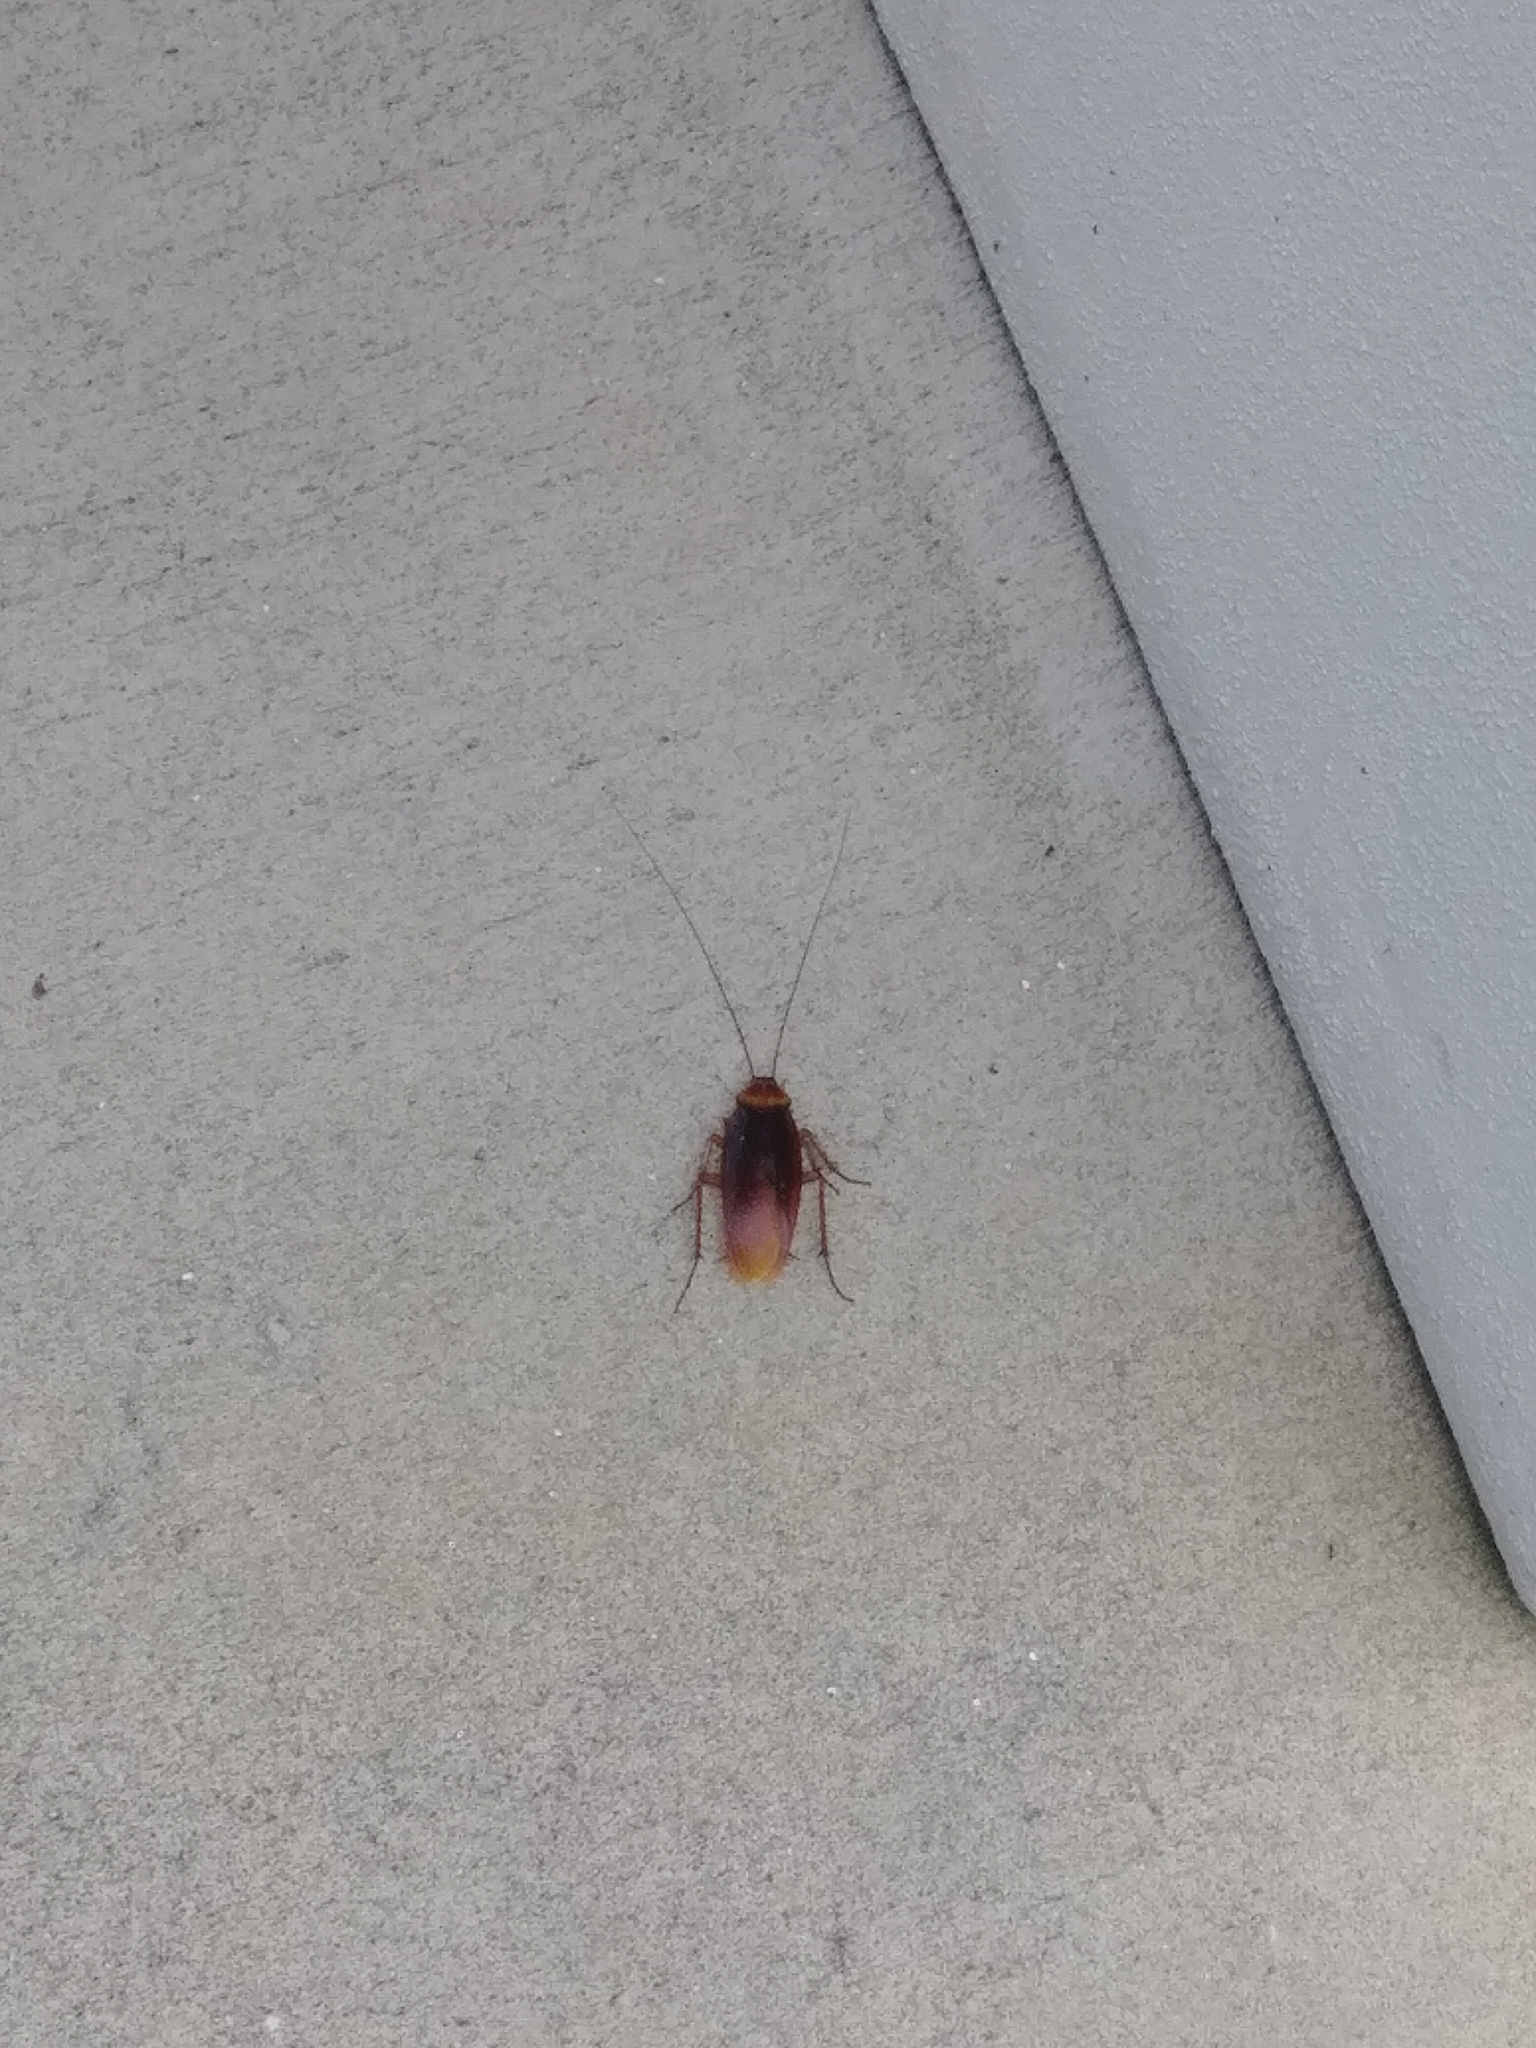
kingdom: Animalia
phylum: Arthropoda
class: Insecta
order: Blattodea
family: Blattidae
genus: Periplaneta
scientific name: Periplaneta americana
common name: American cockroach
